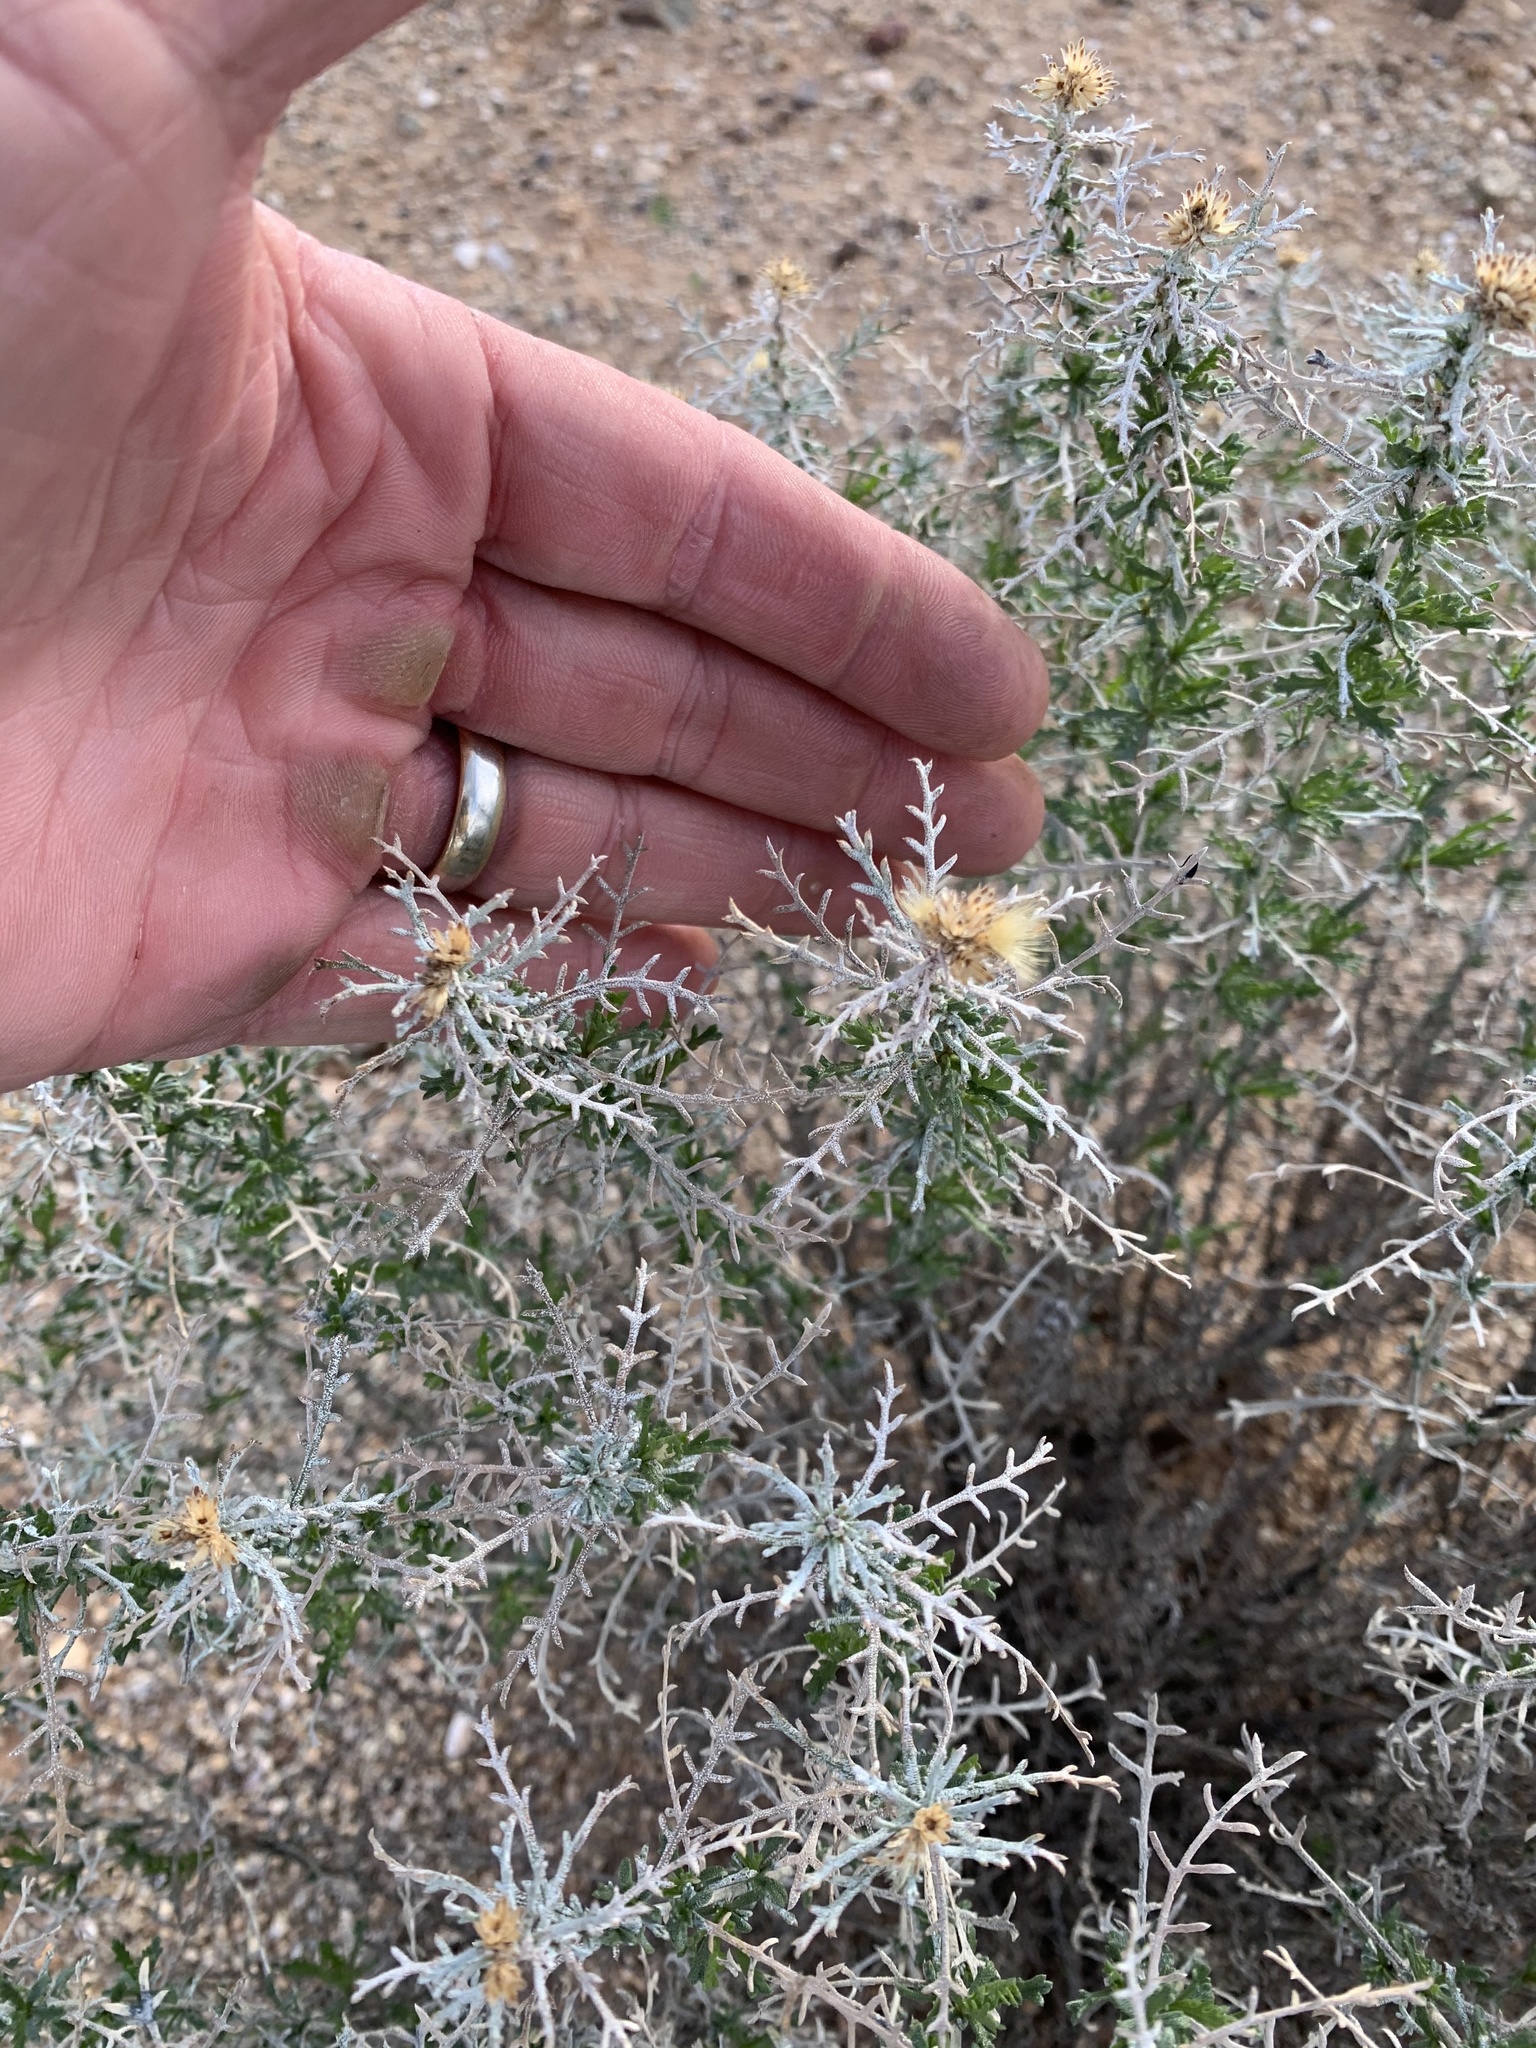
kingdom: Plantae
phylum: Tracheophyta
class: Magnoliopsida
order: Asterales
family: Asteraceae
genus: Isocoma
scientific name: Isocoma tenuisecta
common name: Burroweed
